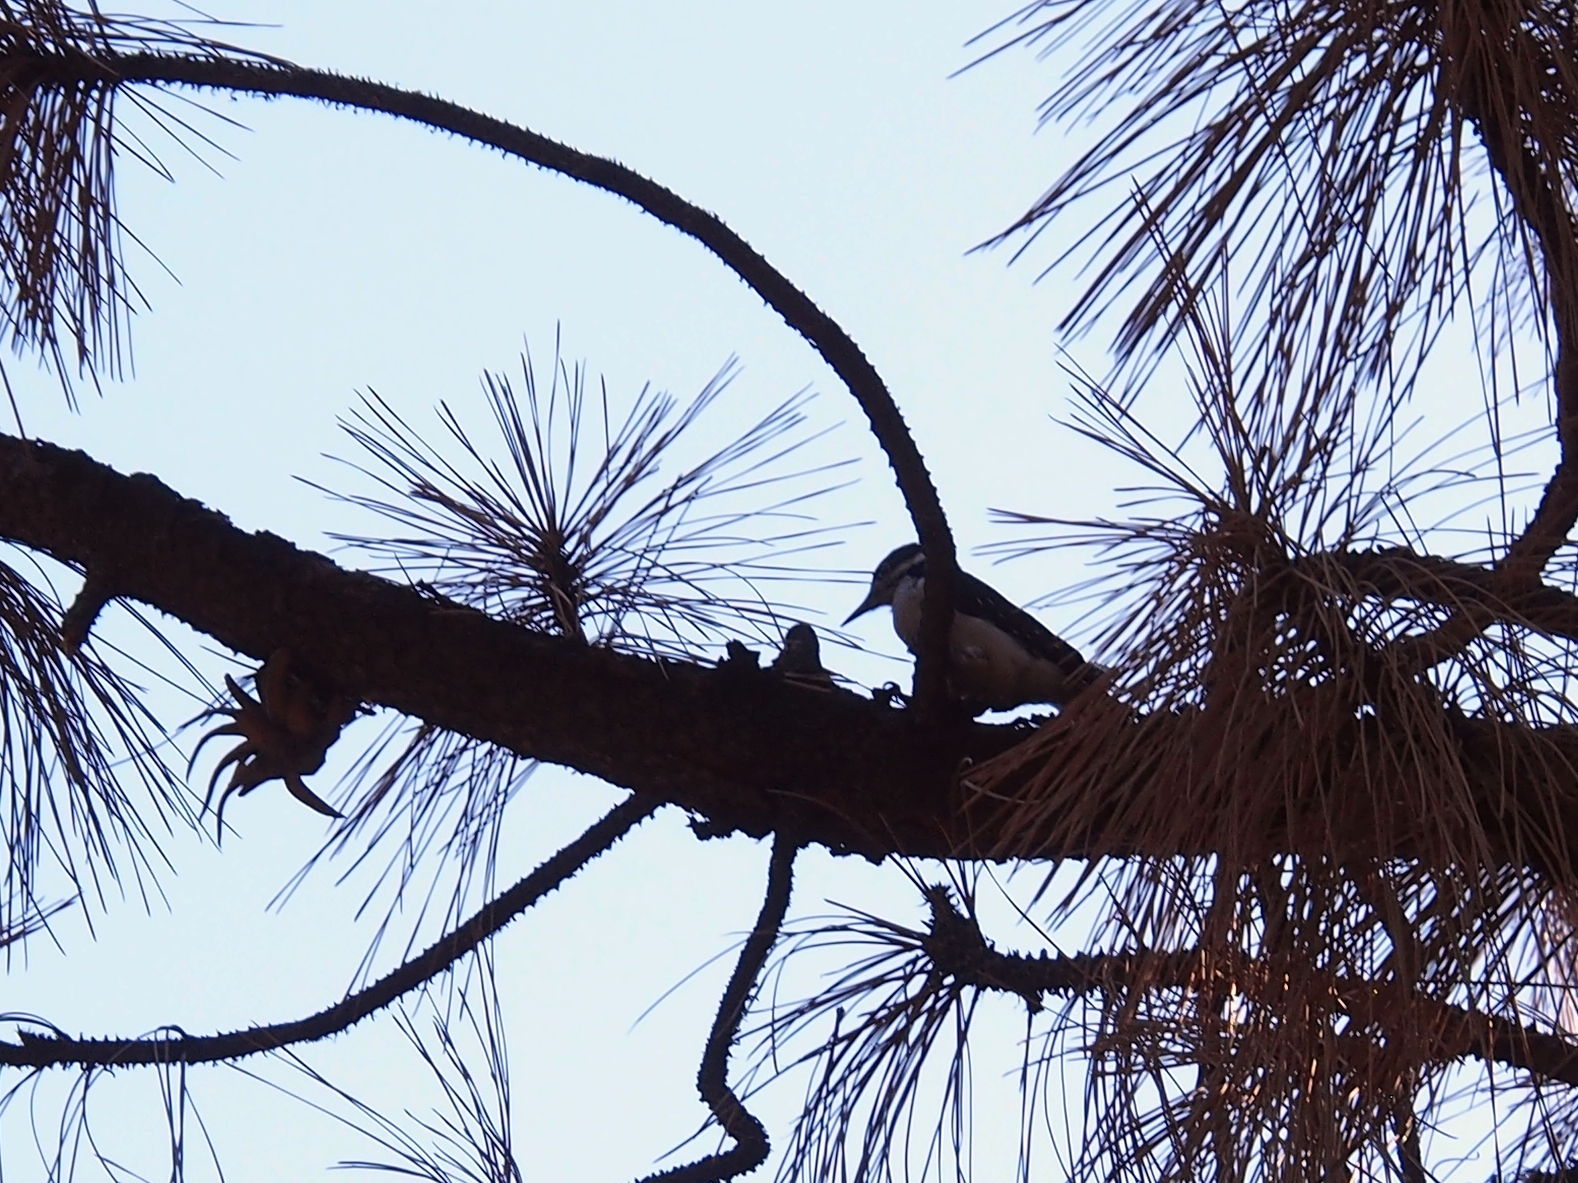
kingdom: Animalia
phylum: Chordata
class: Aves
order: Piciformes
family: Picidae
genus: Leuconotopicus
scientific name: Leuconotopicus villosus
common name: Hairy woodpecker
